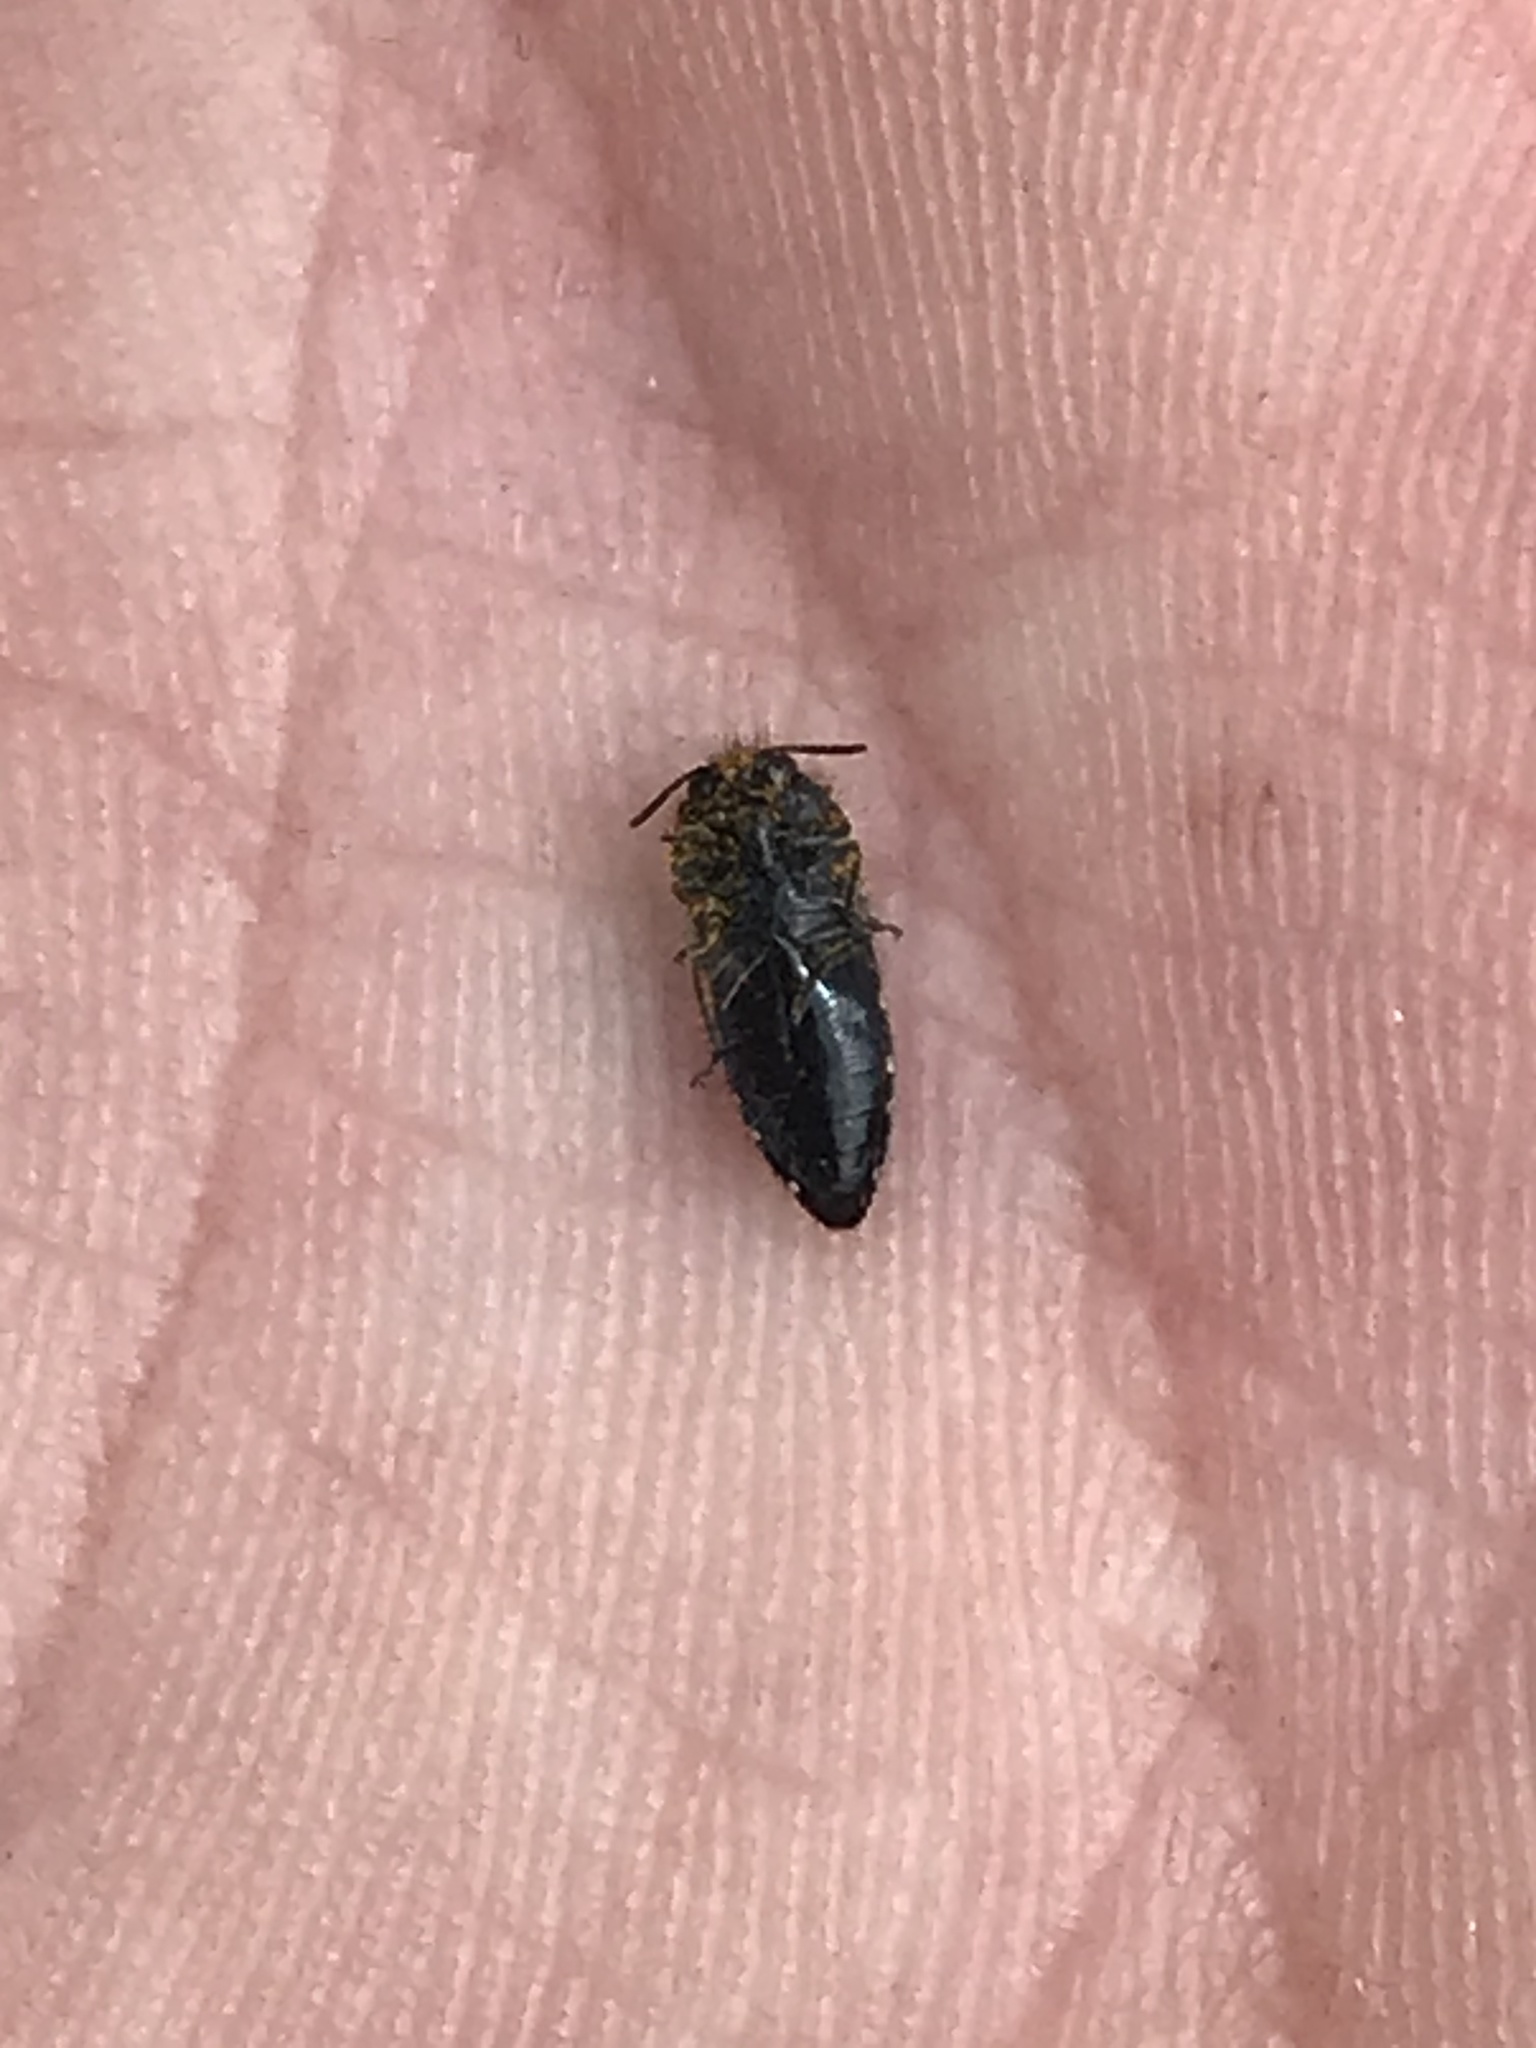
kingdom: Animalia
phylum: Arthropoda
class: Insecta
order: Coleoptera
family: Buprestidae
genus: Acmaeodera
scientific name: Acmaeodera ornata
